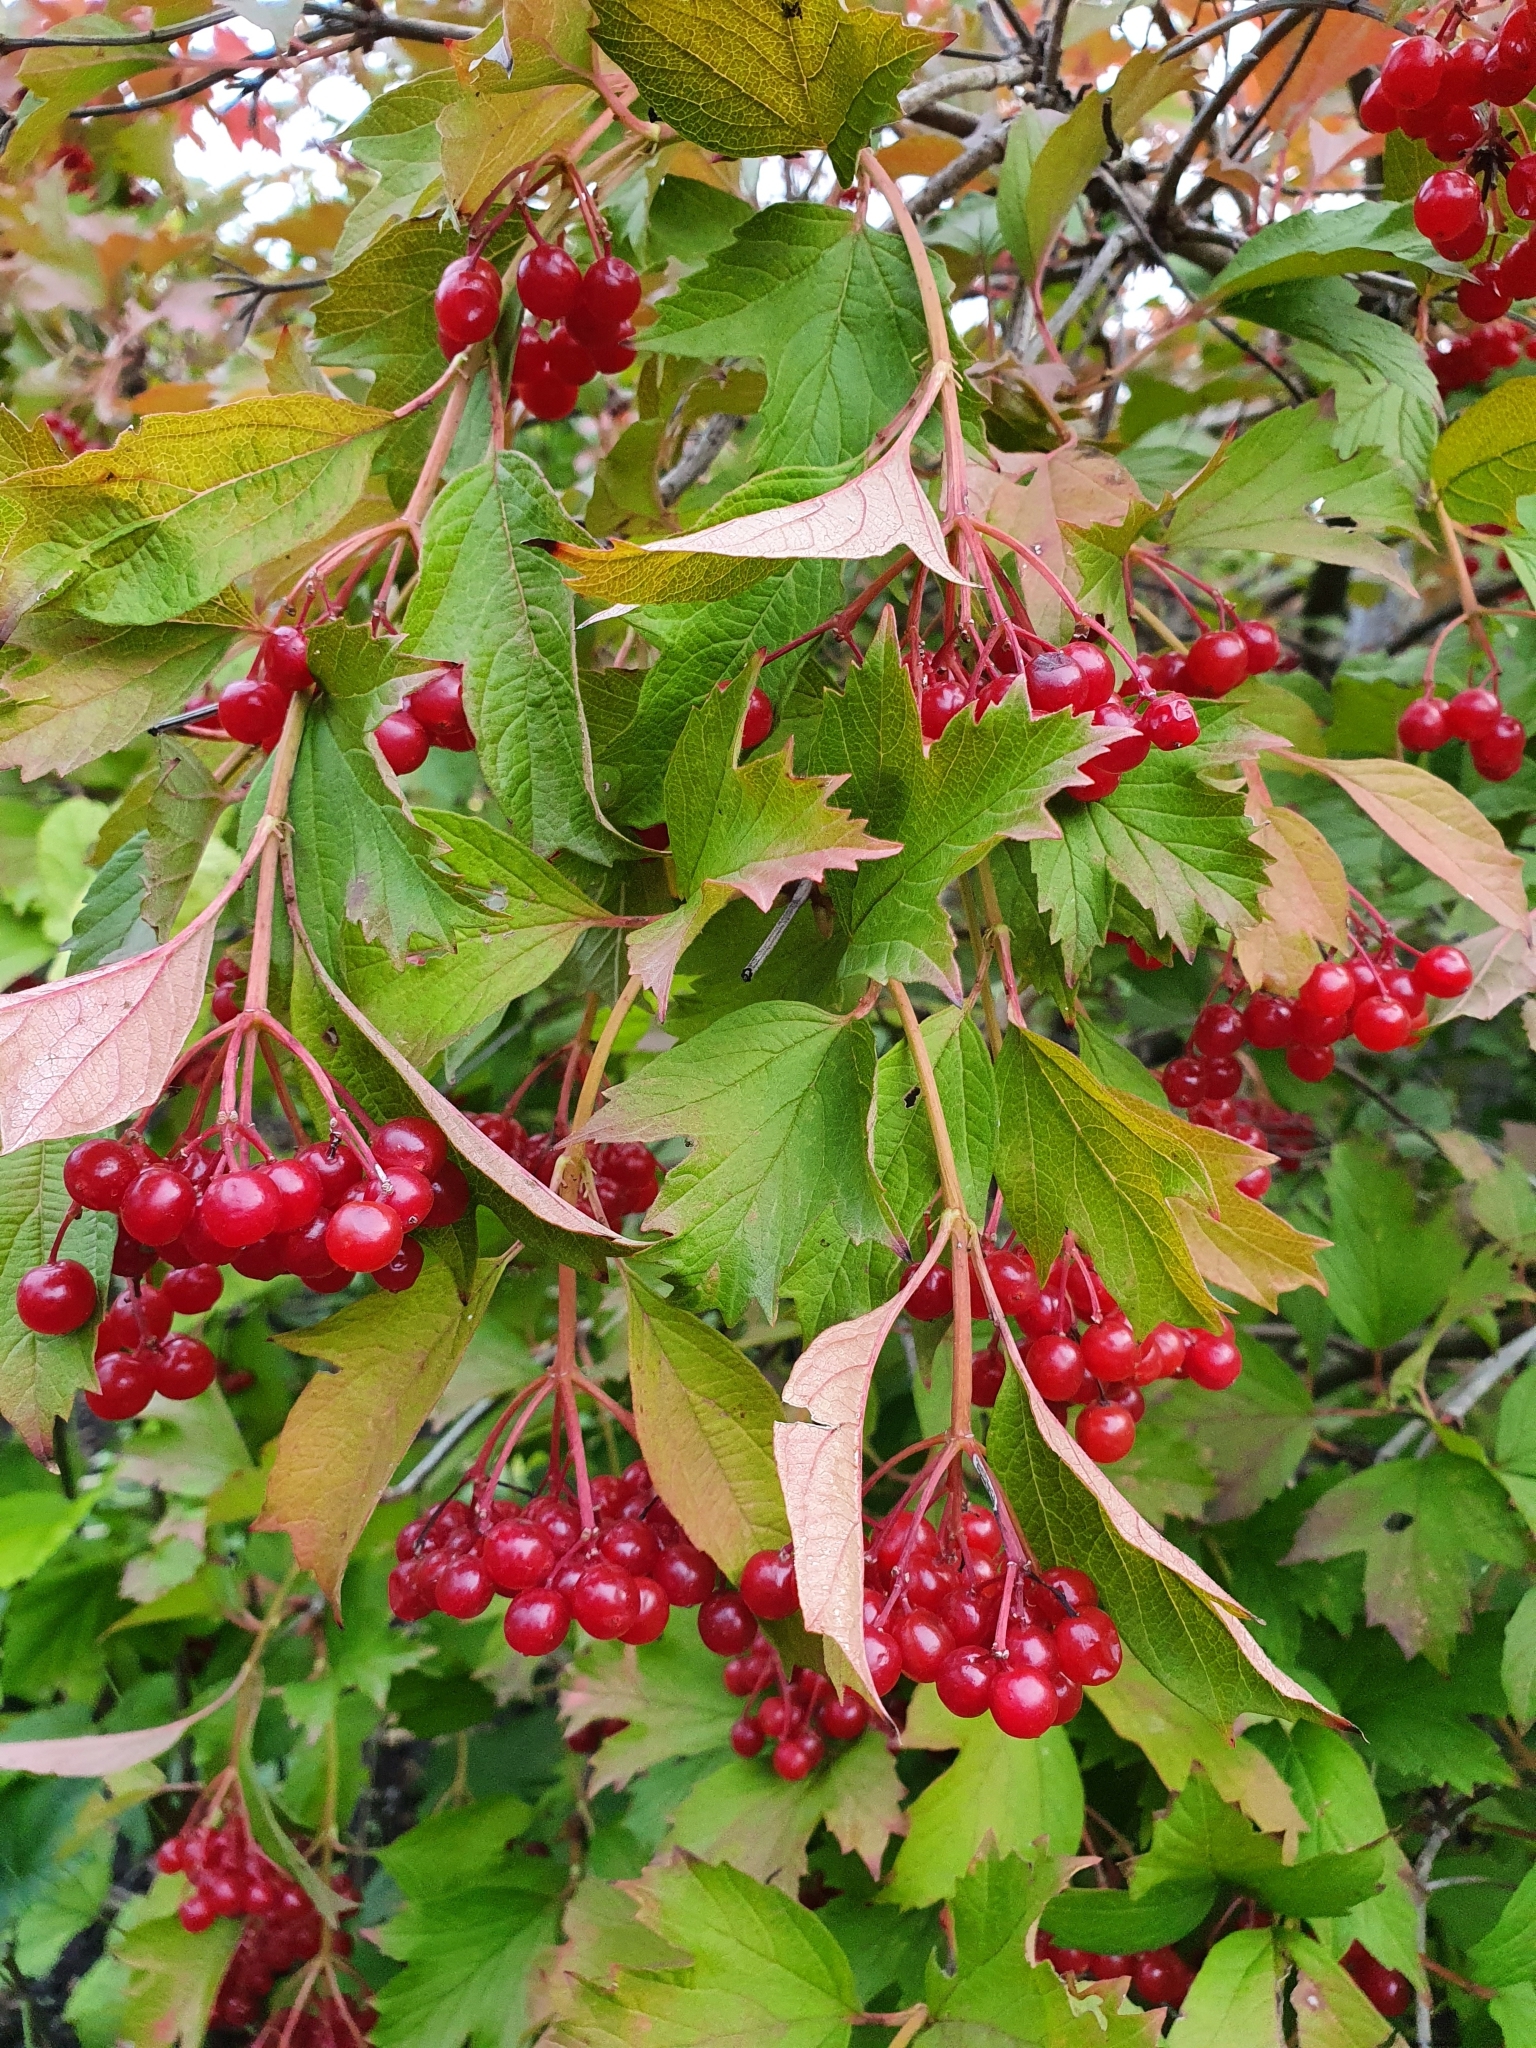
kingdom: Plantae
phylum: Tracheophyta
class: Magnoliopsida
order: Dipsacales
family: Viburnaceae
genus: Viburnum
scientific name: Viburnum opulus
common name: Guelder-rose
